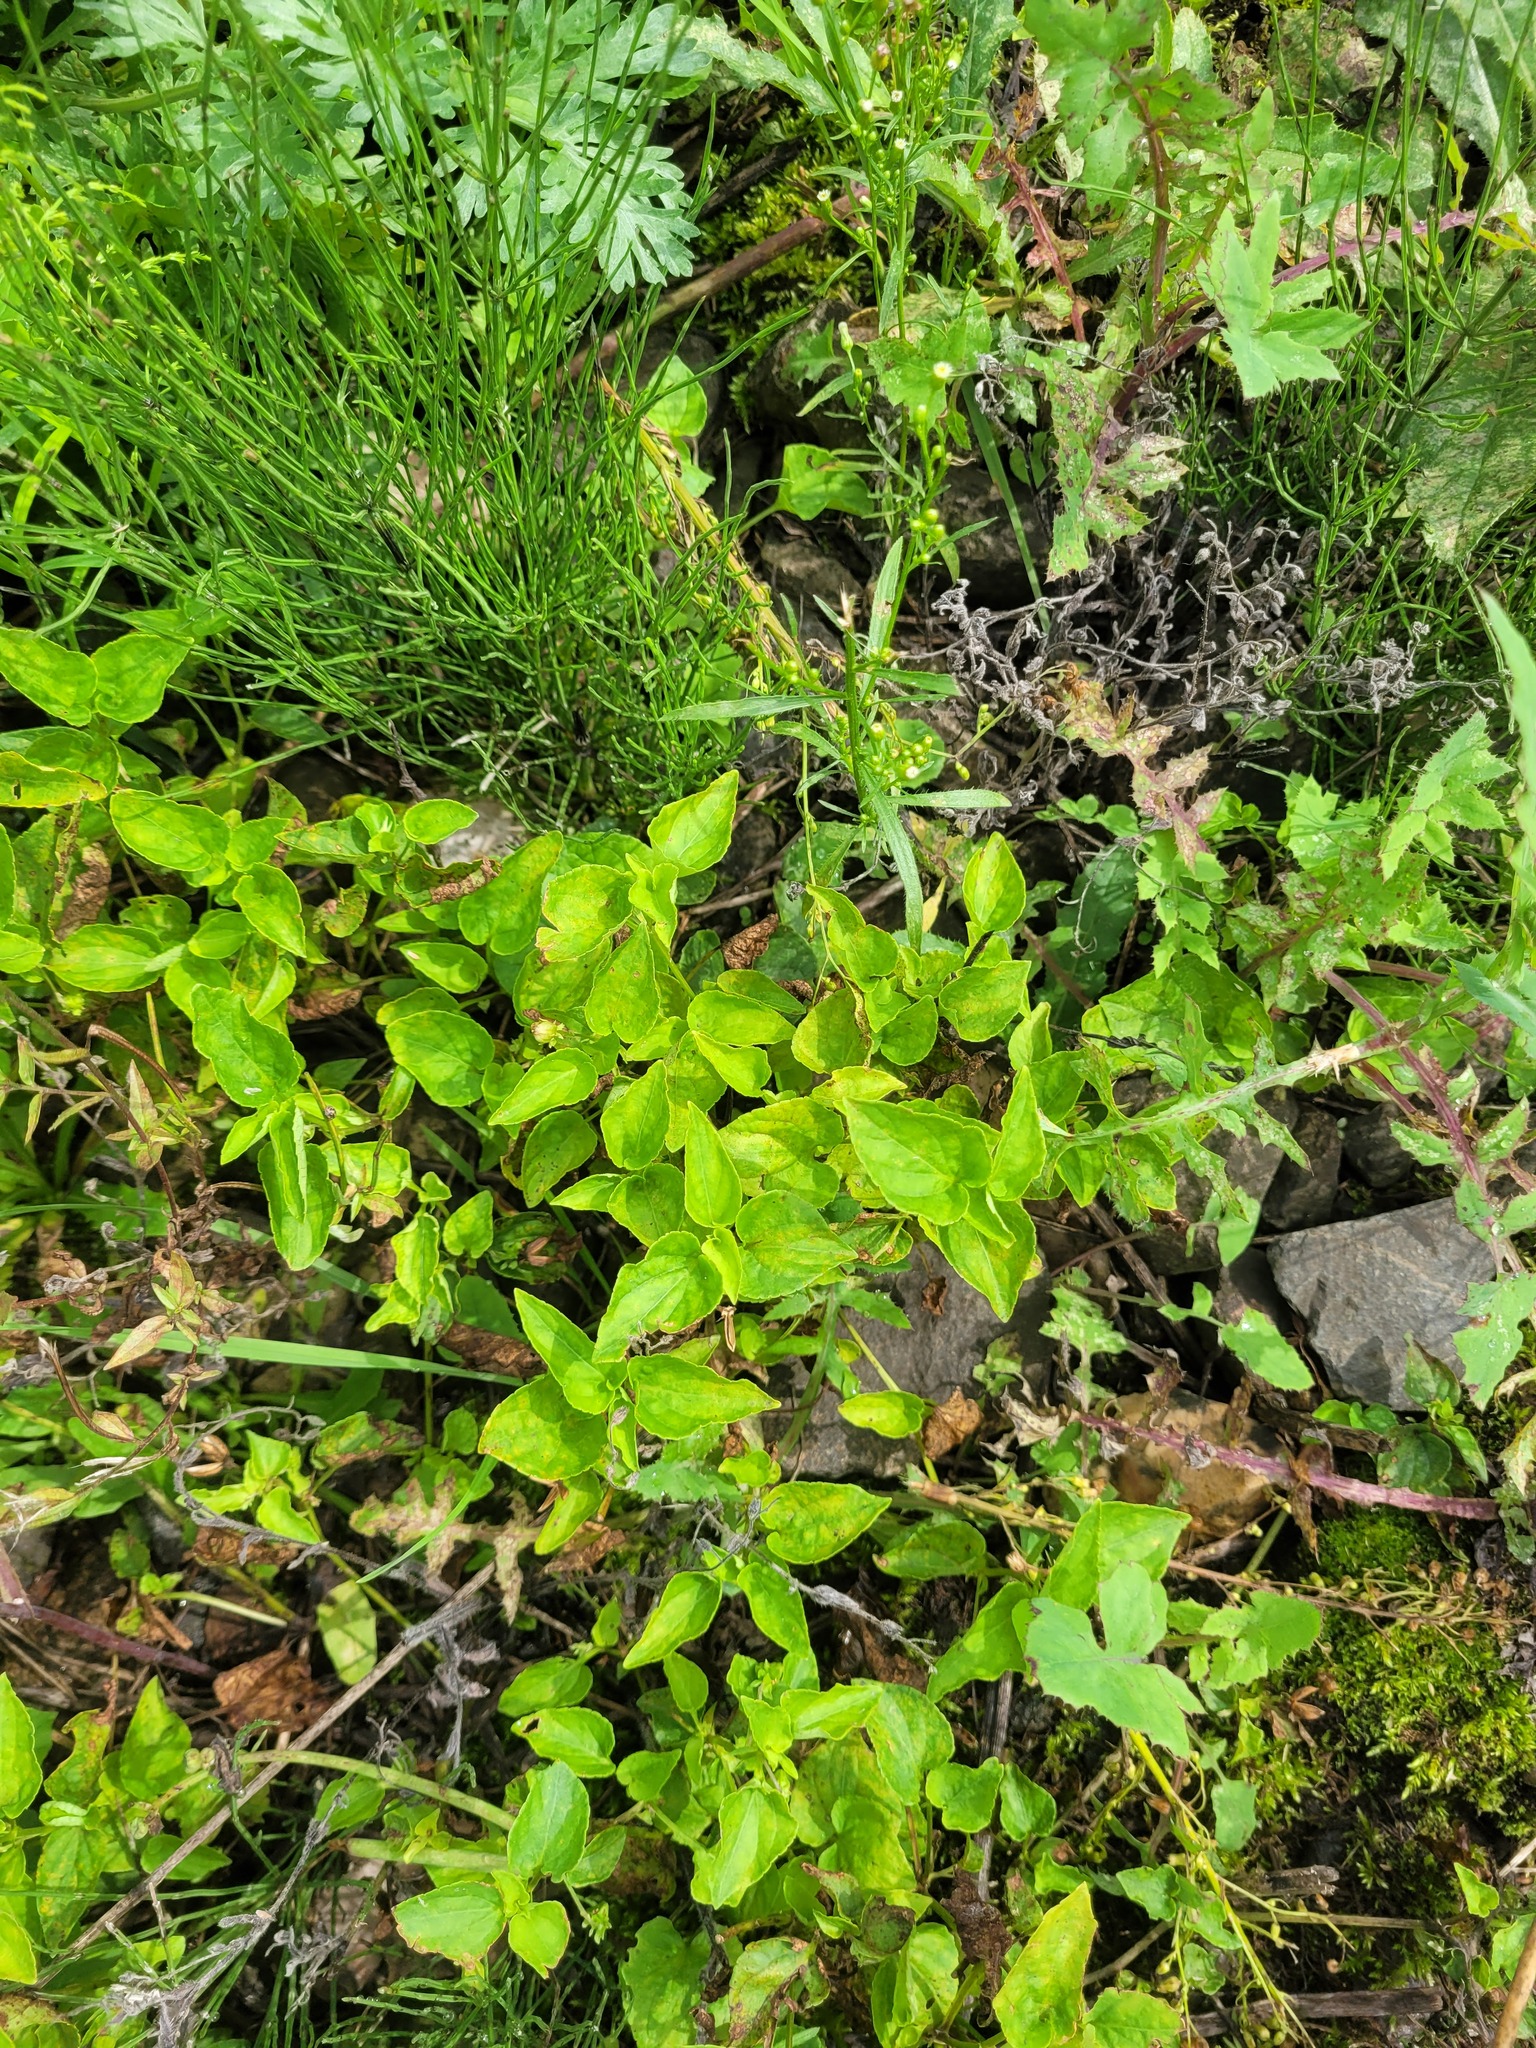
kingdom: Plantae
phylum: Tracheophyta
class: Magnoliopsida
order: Malpighiales
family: Violaceae
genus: Viola
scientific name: Viola canina
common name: Heath dog-violet
